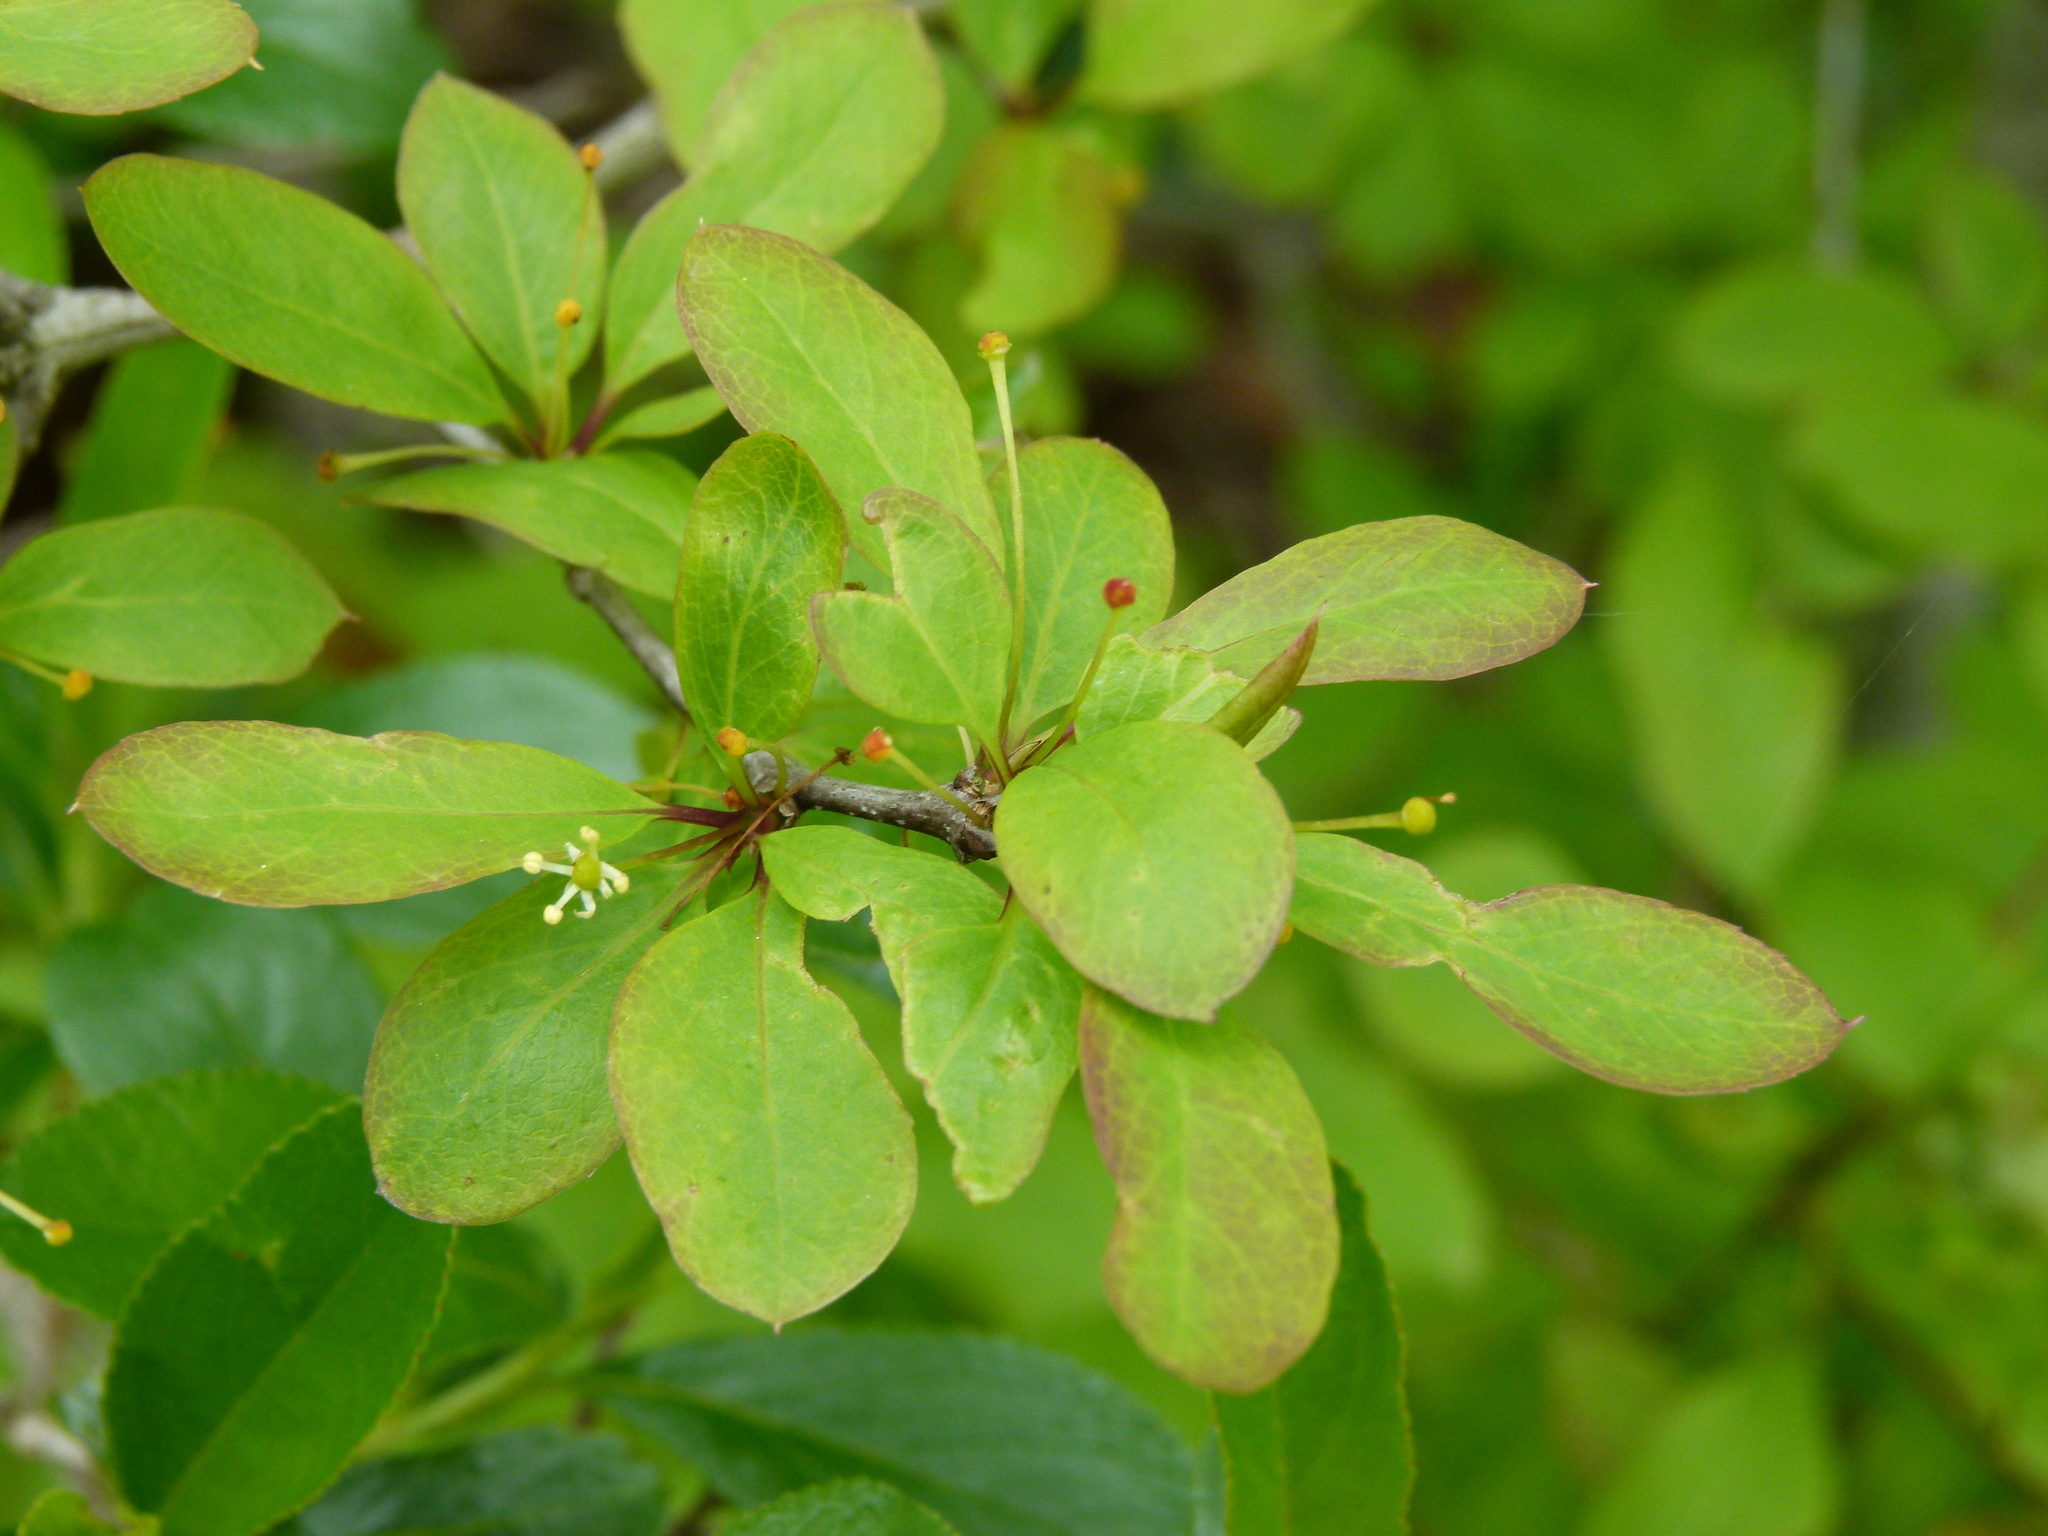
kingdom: Plantae
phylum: Tracheophyta
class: Magnoliopsida
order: Aquifoliales
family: Aquifoliaceae
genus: Ilex
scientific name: Ilex mucronata
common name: Catberry
